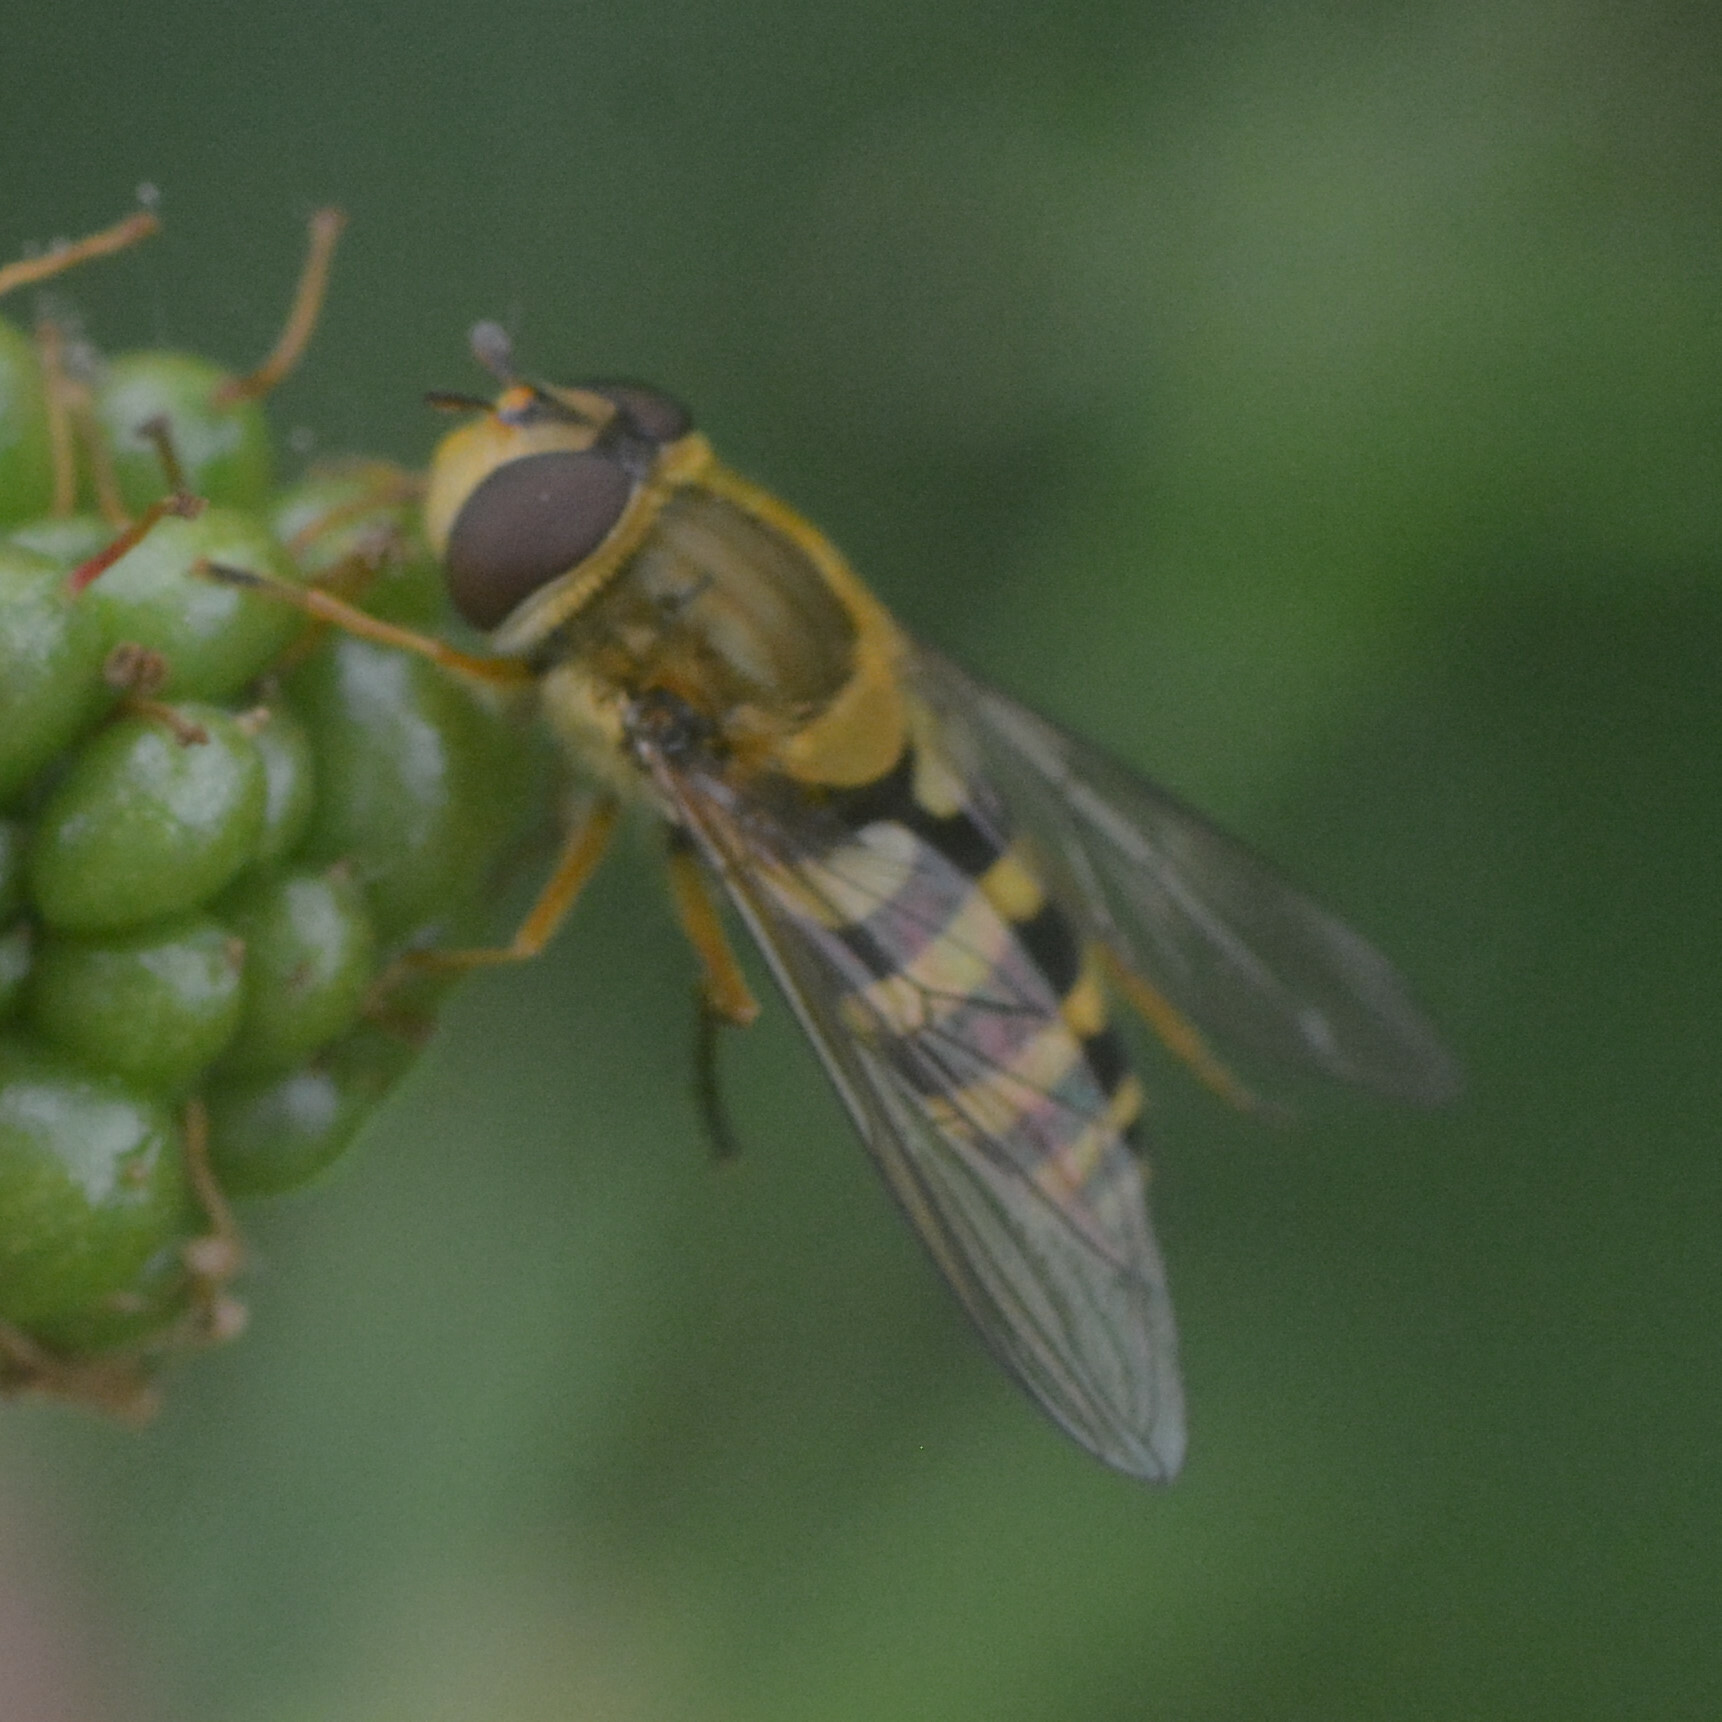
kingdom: Animalia
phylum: Arthropoda
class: Insecta
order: Diptera
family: Syrphidae
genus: Syrphus
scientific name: Syrphus ribesii
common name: Common flower fly
